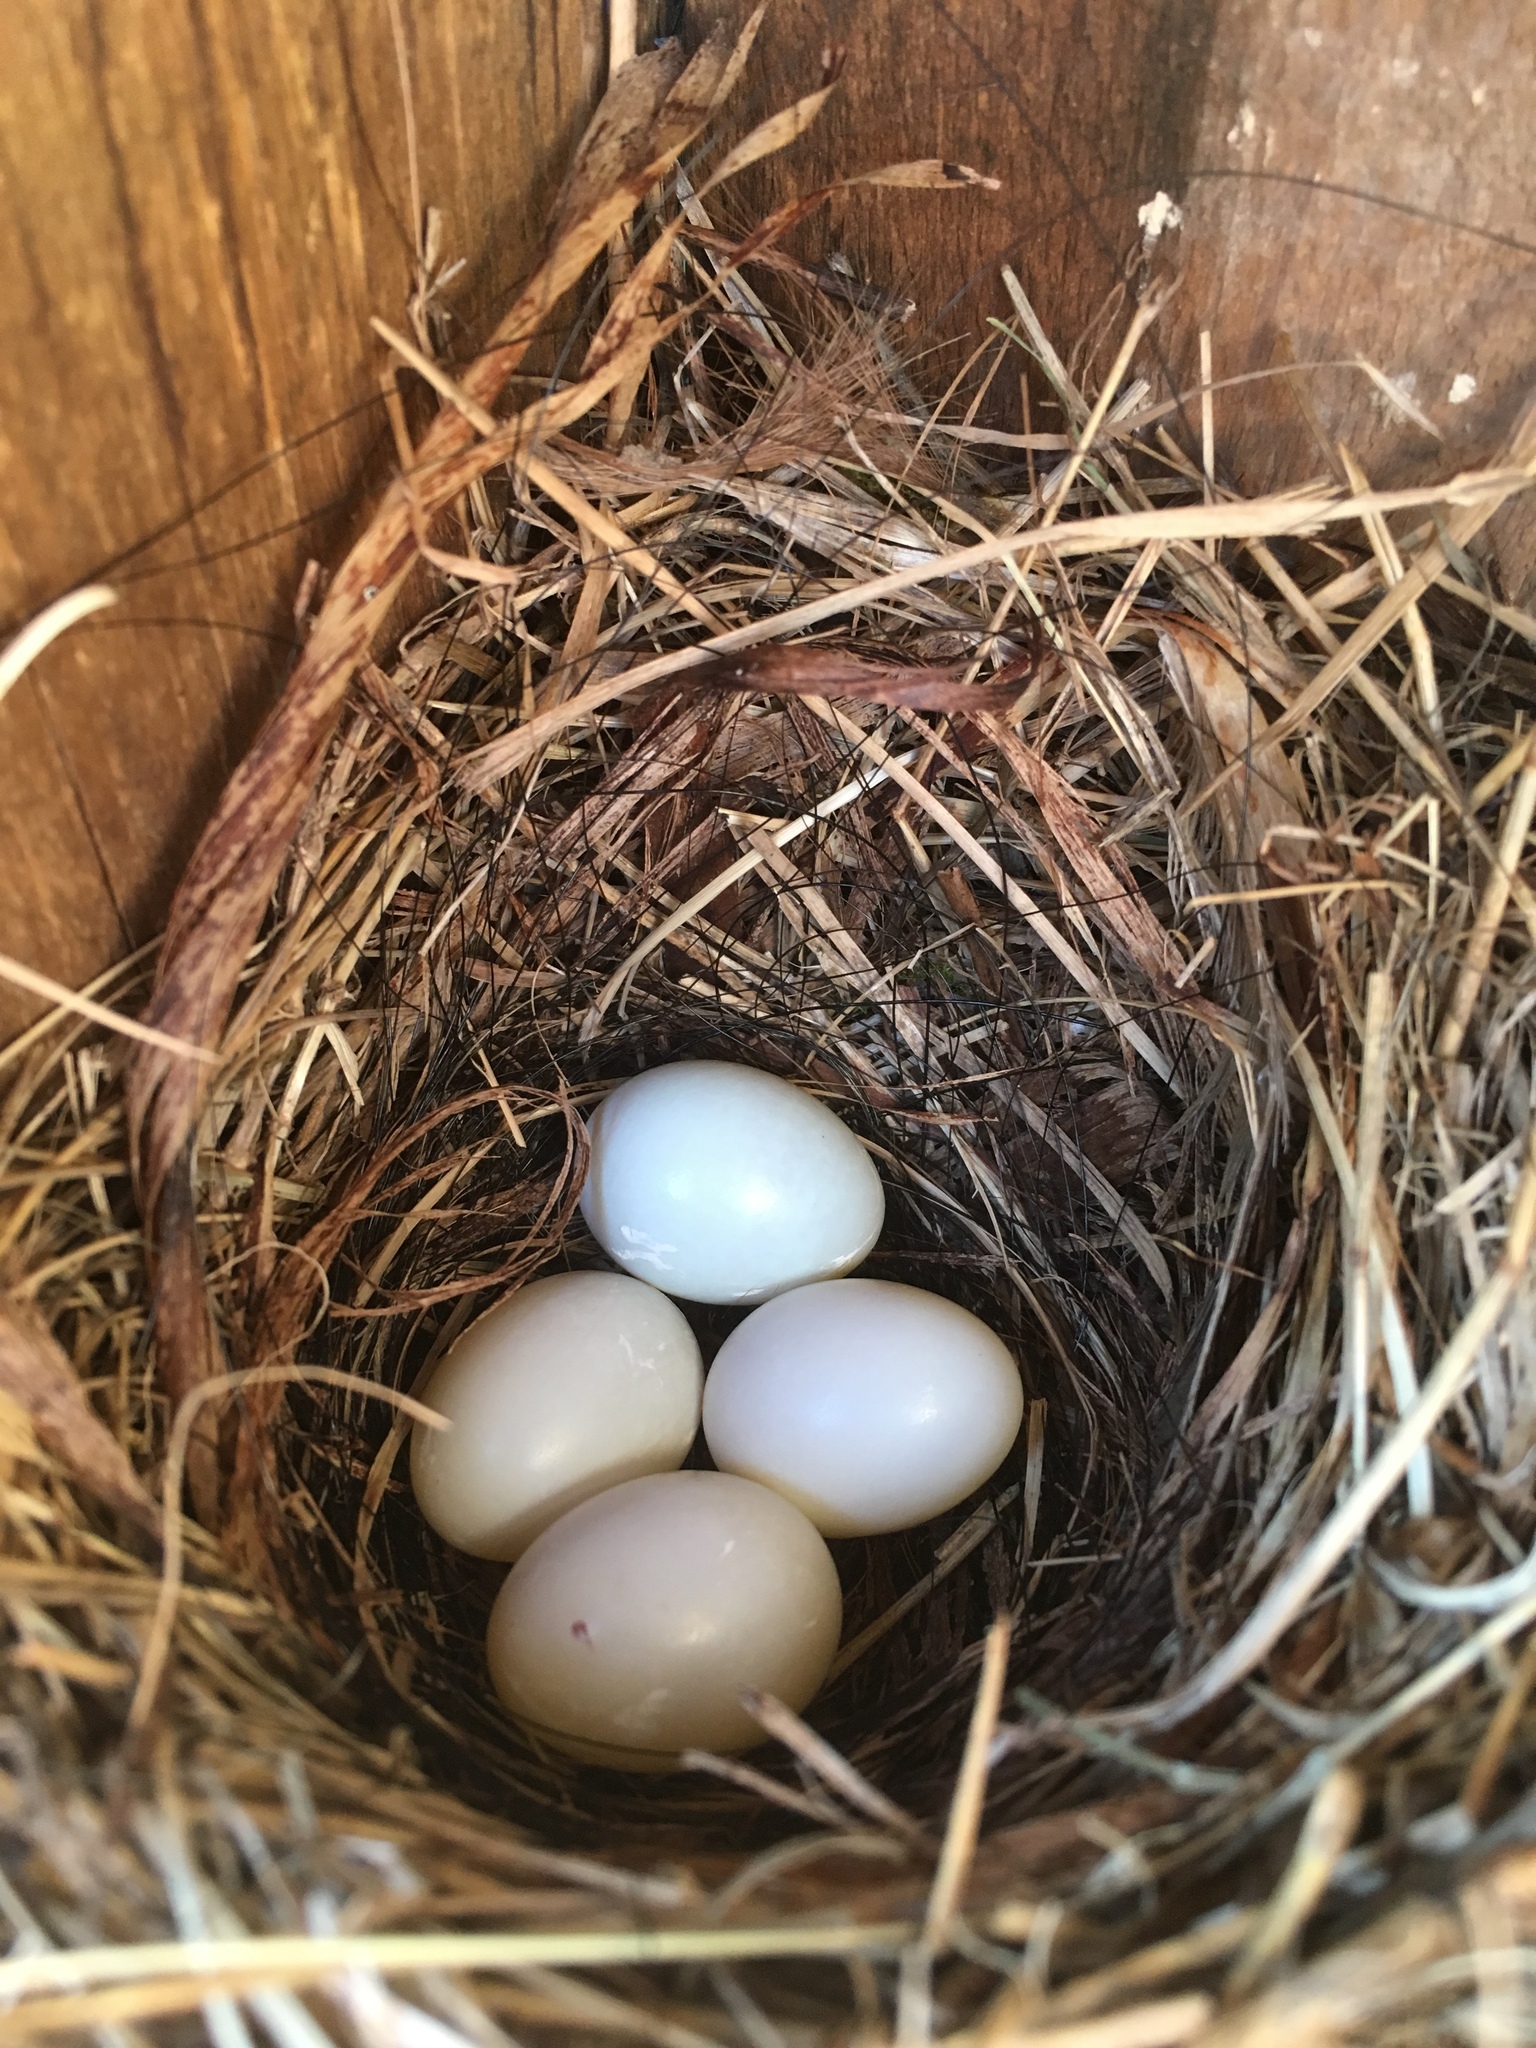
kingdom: Animalia
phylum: Chordata
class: Aves
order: Passeriformes
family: Turdidae
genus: Sialia
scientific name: Sialia sialis
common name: Eastern bluebird
